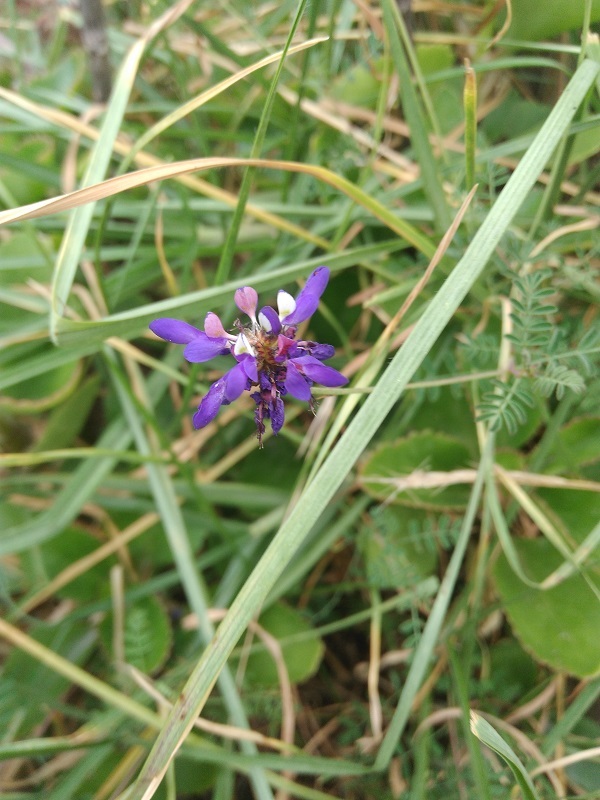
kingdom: Plantae
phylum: Tracheophyta
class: Magnoliopsida
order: Fabales
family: Fabaceae
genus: Dalea
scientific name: Dalea cuatrecasasii
